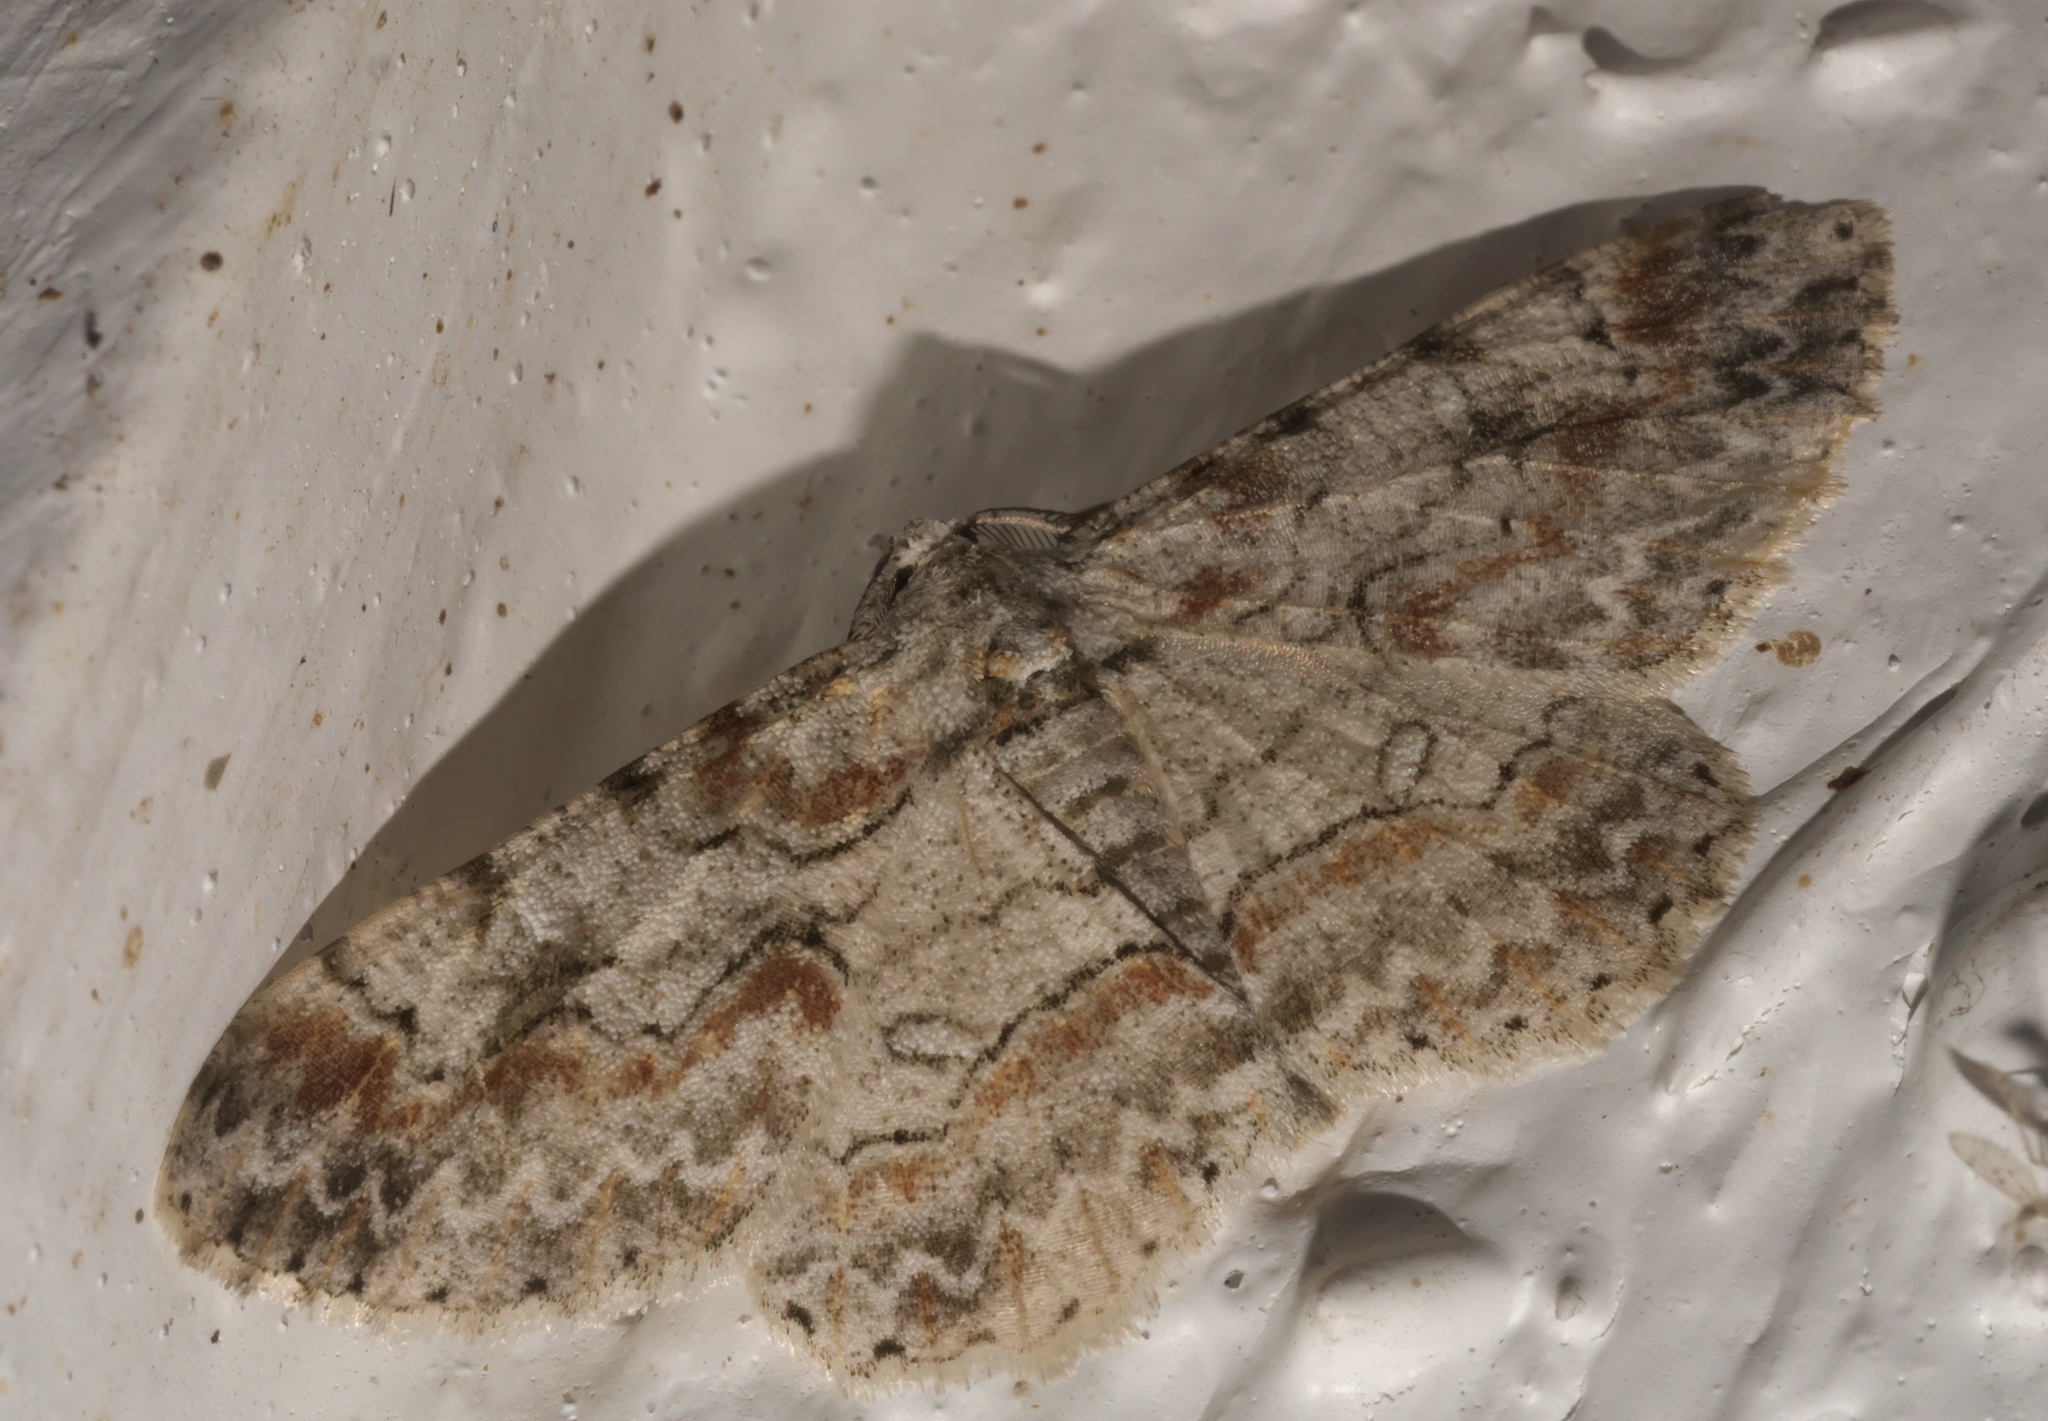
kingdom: Animalia
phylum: Arthropoda
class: Insecta
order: Lepidoptera
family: Geometridae
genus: Iridopsis
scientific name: Iridopsis defectaria
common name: Brown-shaded gray
